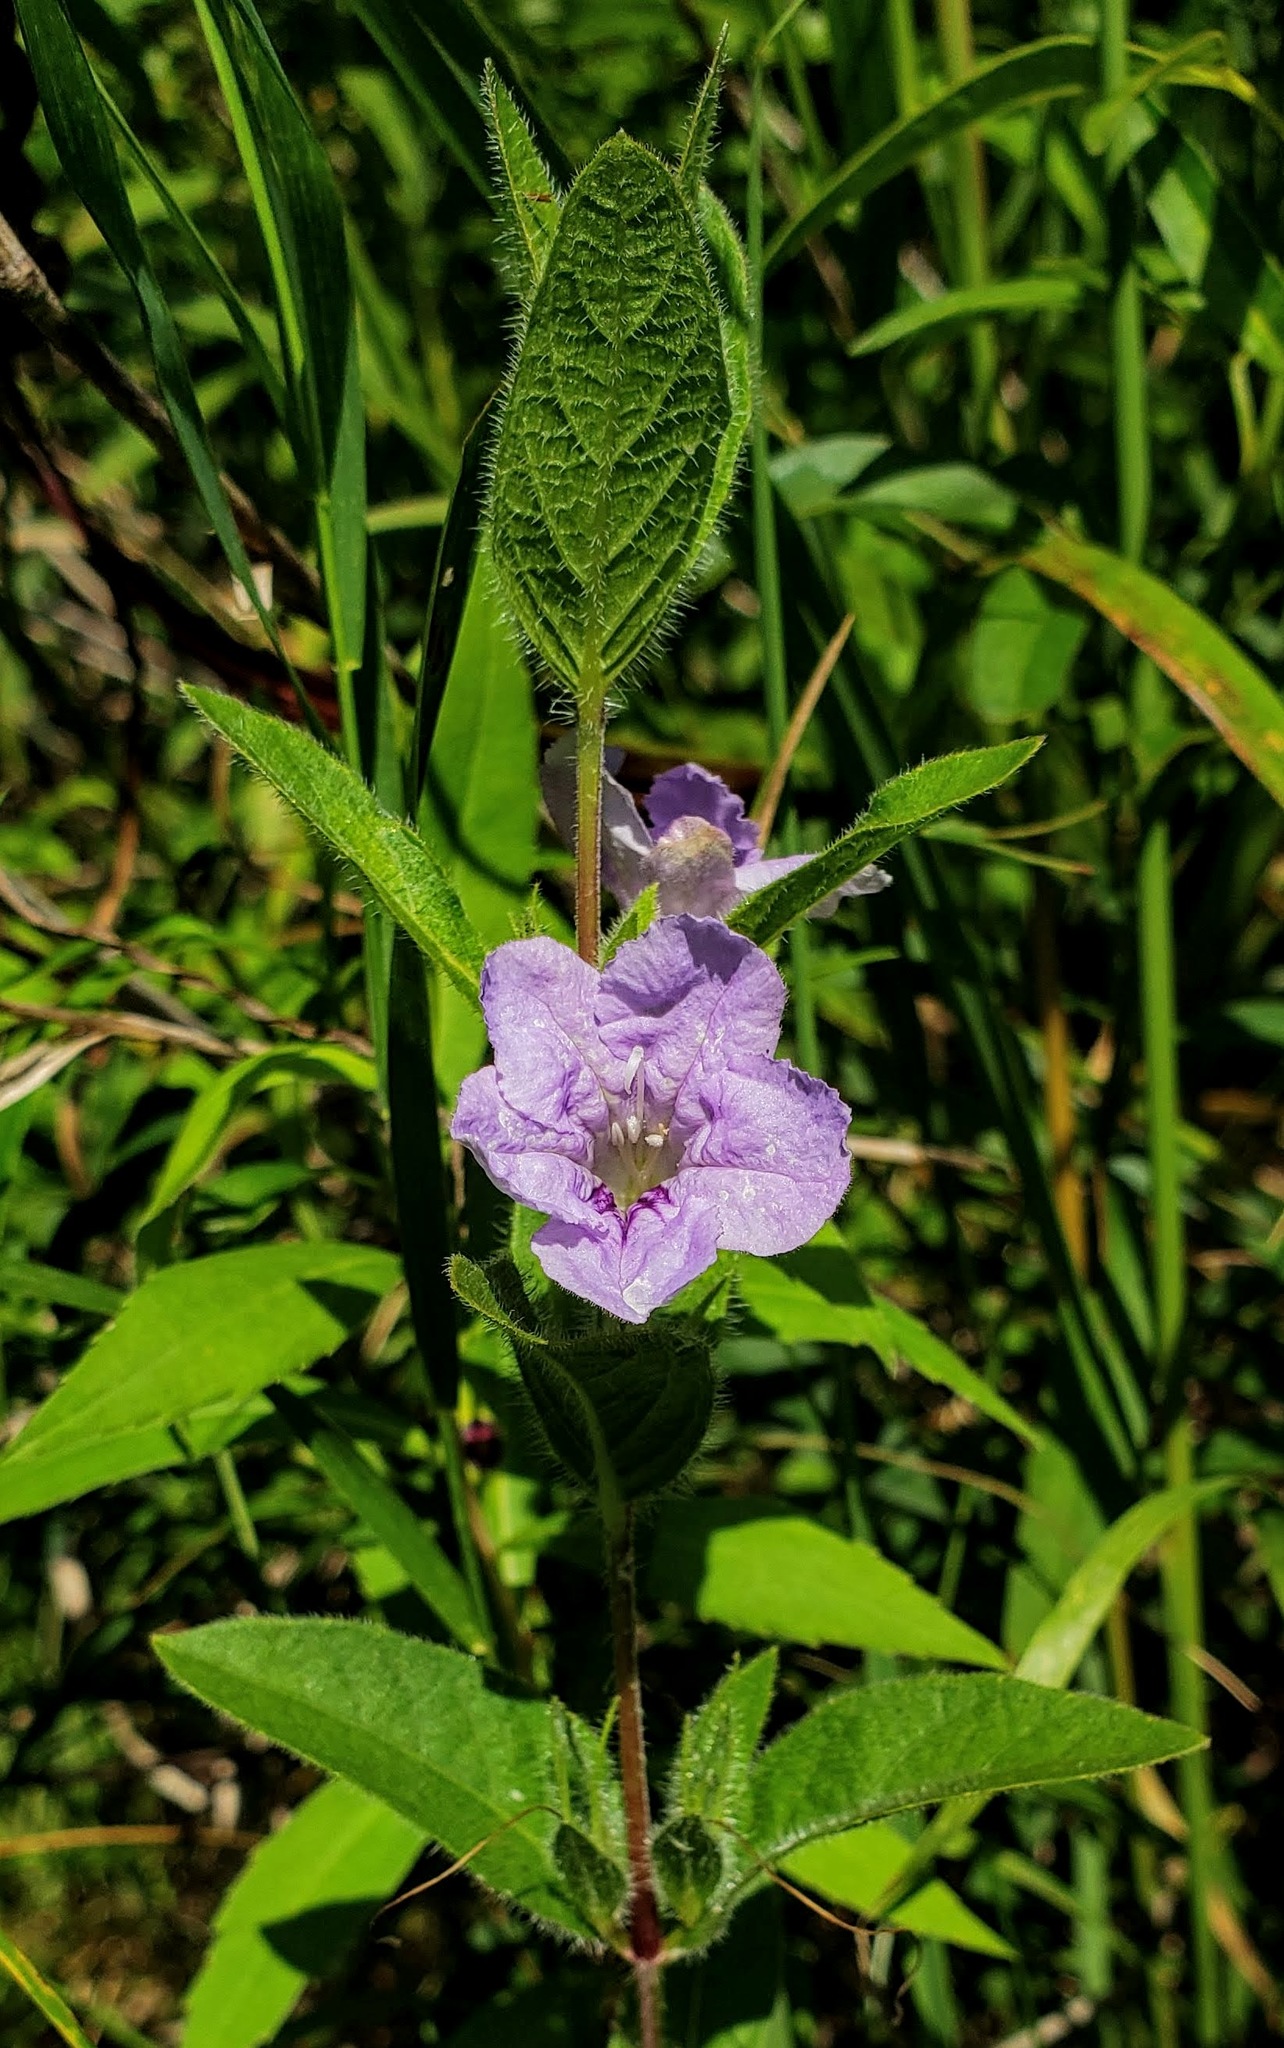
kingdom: Plantae
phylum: Tracheophyta
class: Magnoliopsida
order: Lamiales
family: Acanthaceae
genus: Ruellia
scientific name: Ruellia humilis
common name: Fringe-leaf ruellia
